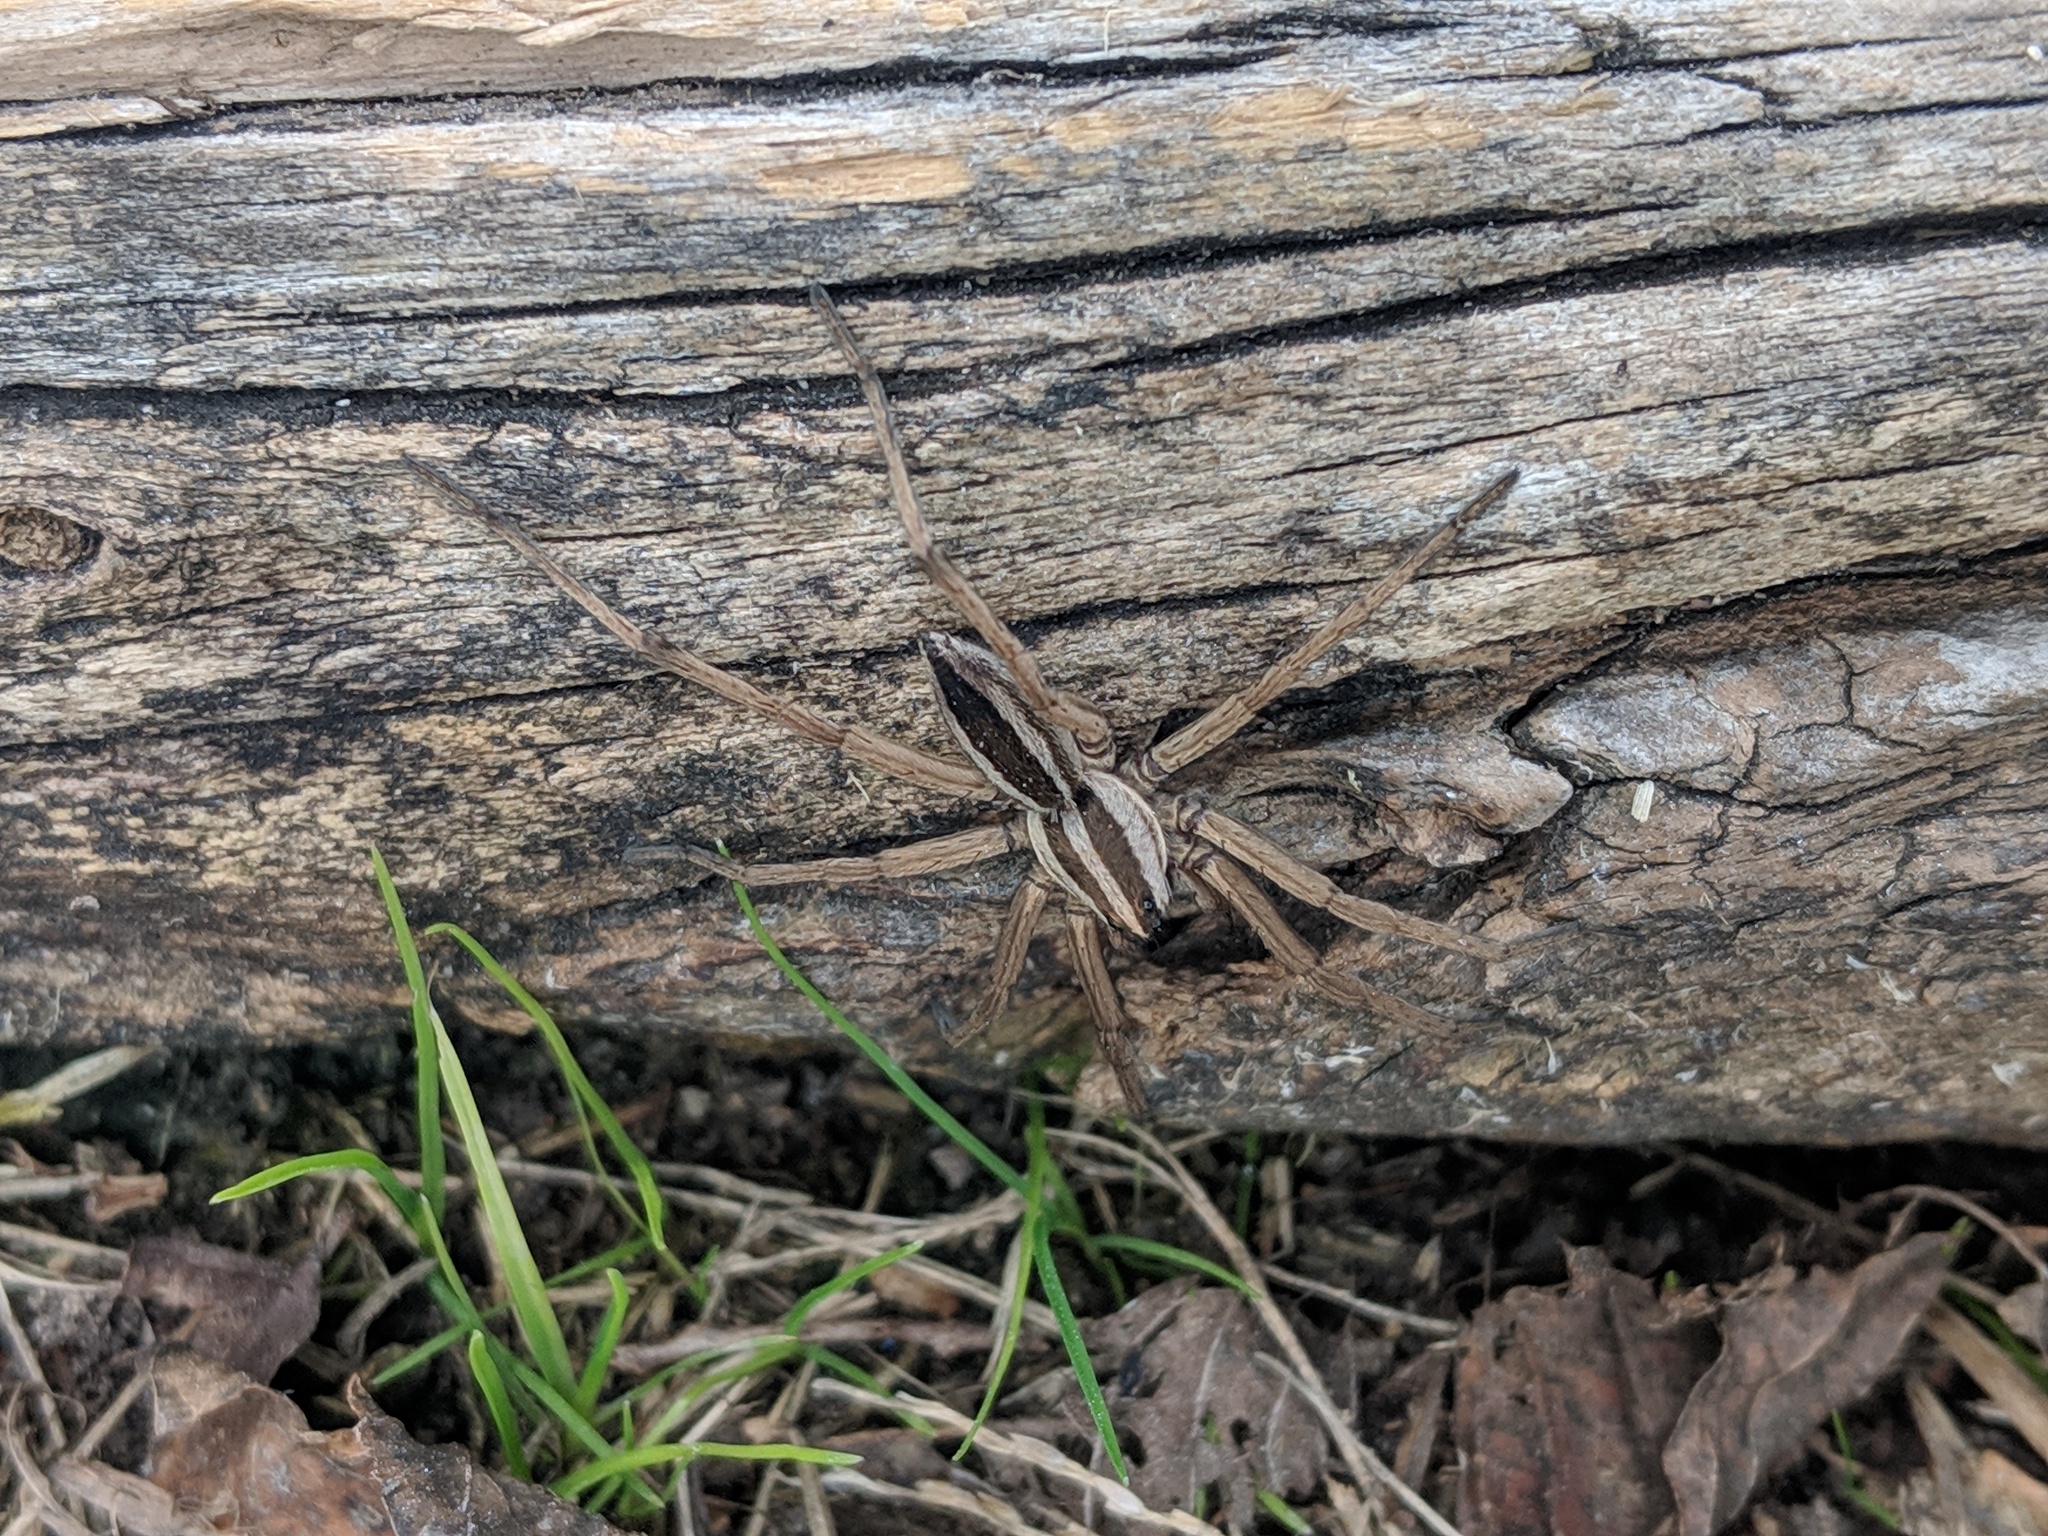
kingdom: Animalia
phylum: Arthropoda
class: Arachnida
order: Araneae
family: Lycosidae
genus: Rabidosa
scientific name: Rabidosa punctulata
